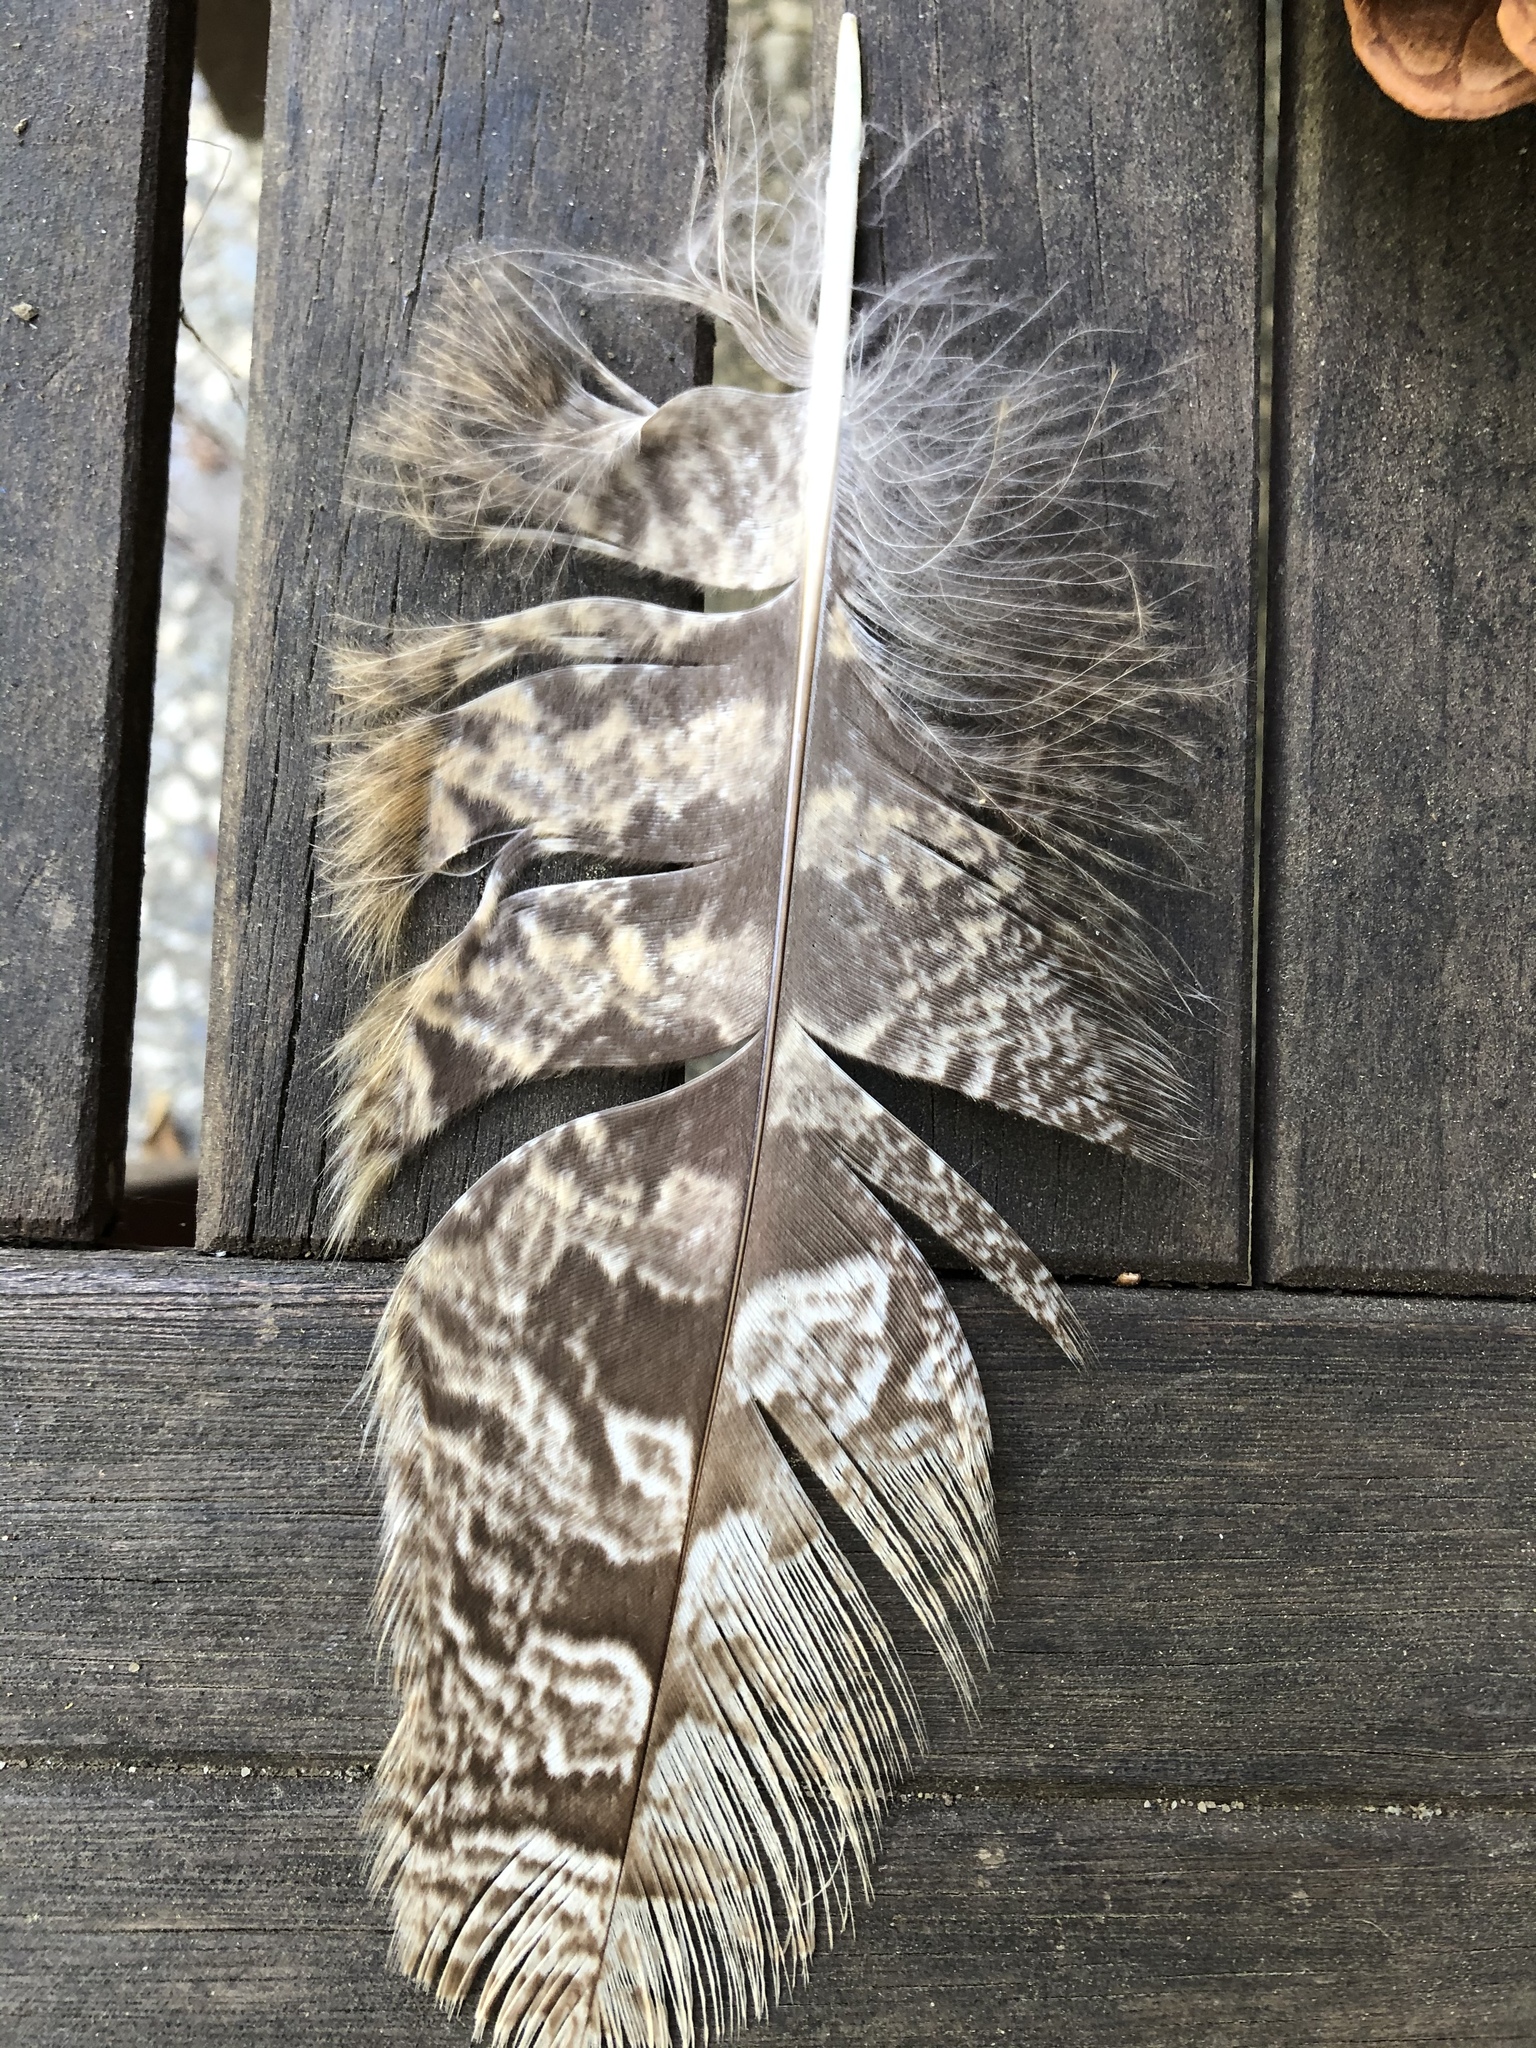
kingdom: Animalia
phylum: Chordata
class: Aves
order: Strigiformes
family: Strigidae
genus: Bubo
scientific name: Bubo virginianus
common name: Great horned owl
